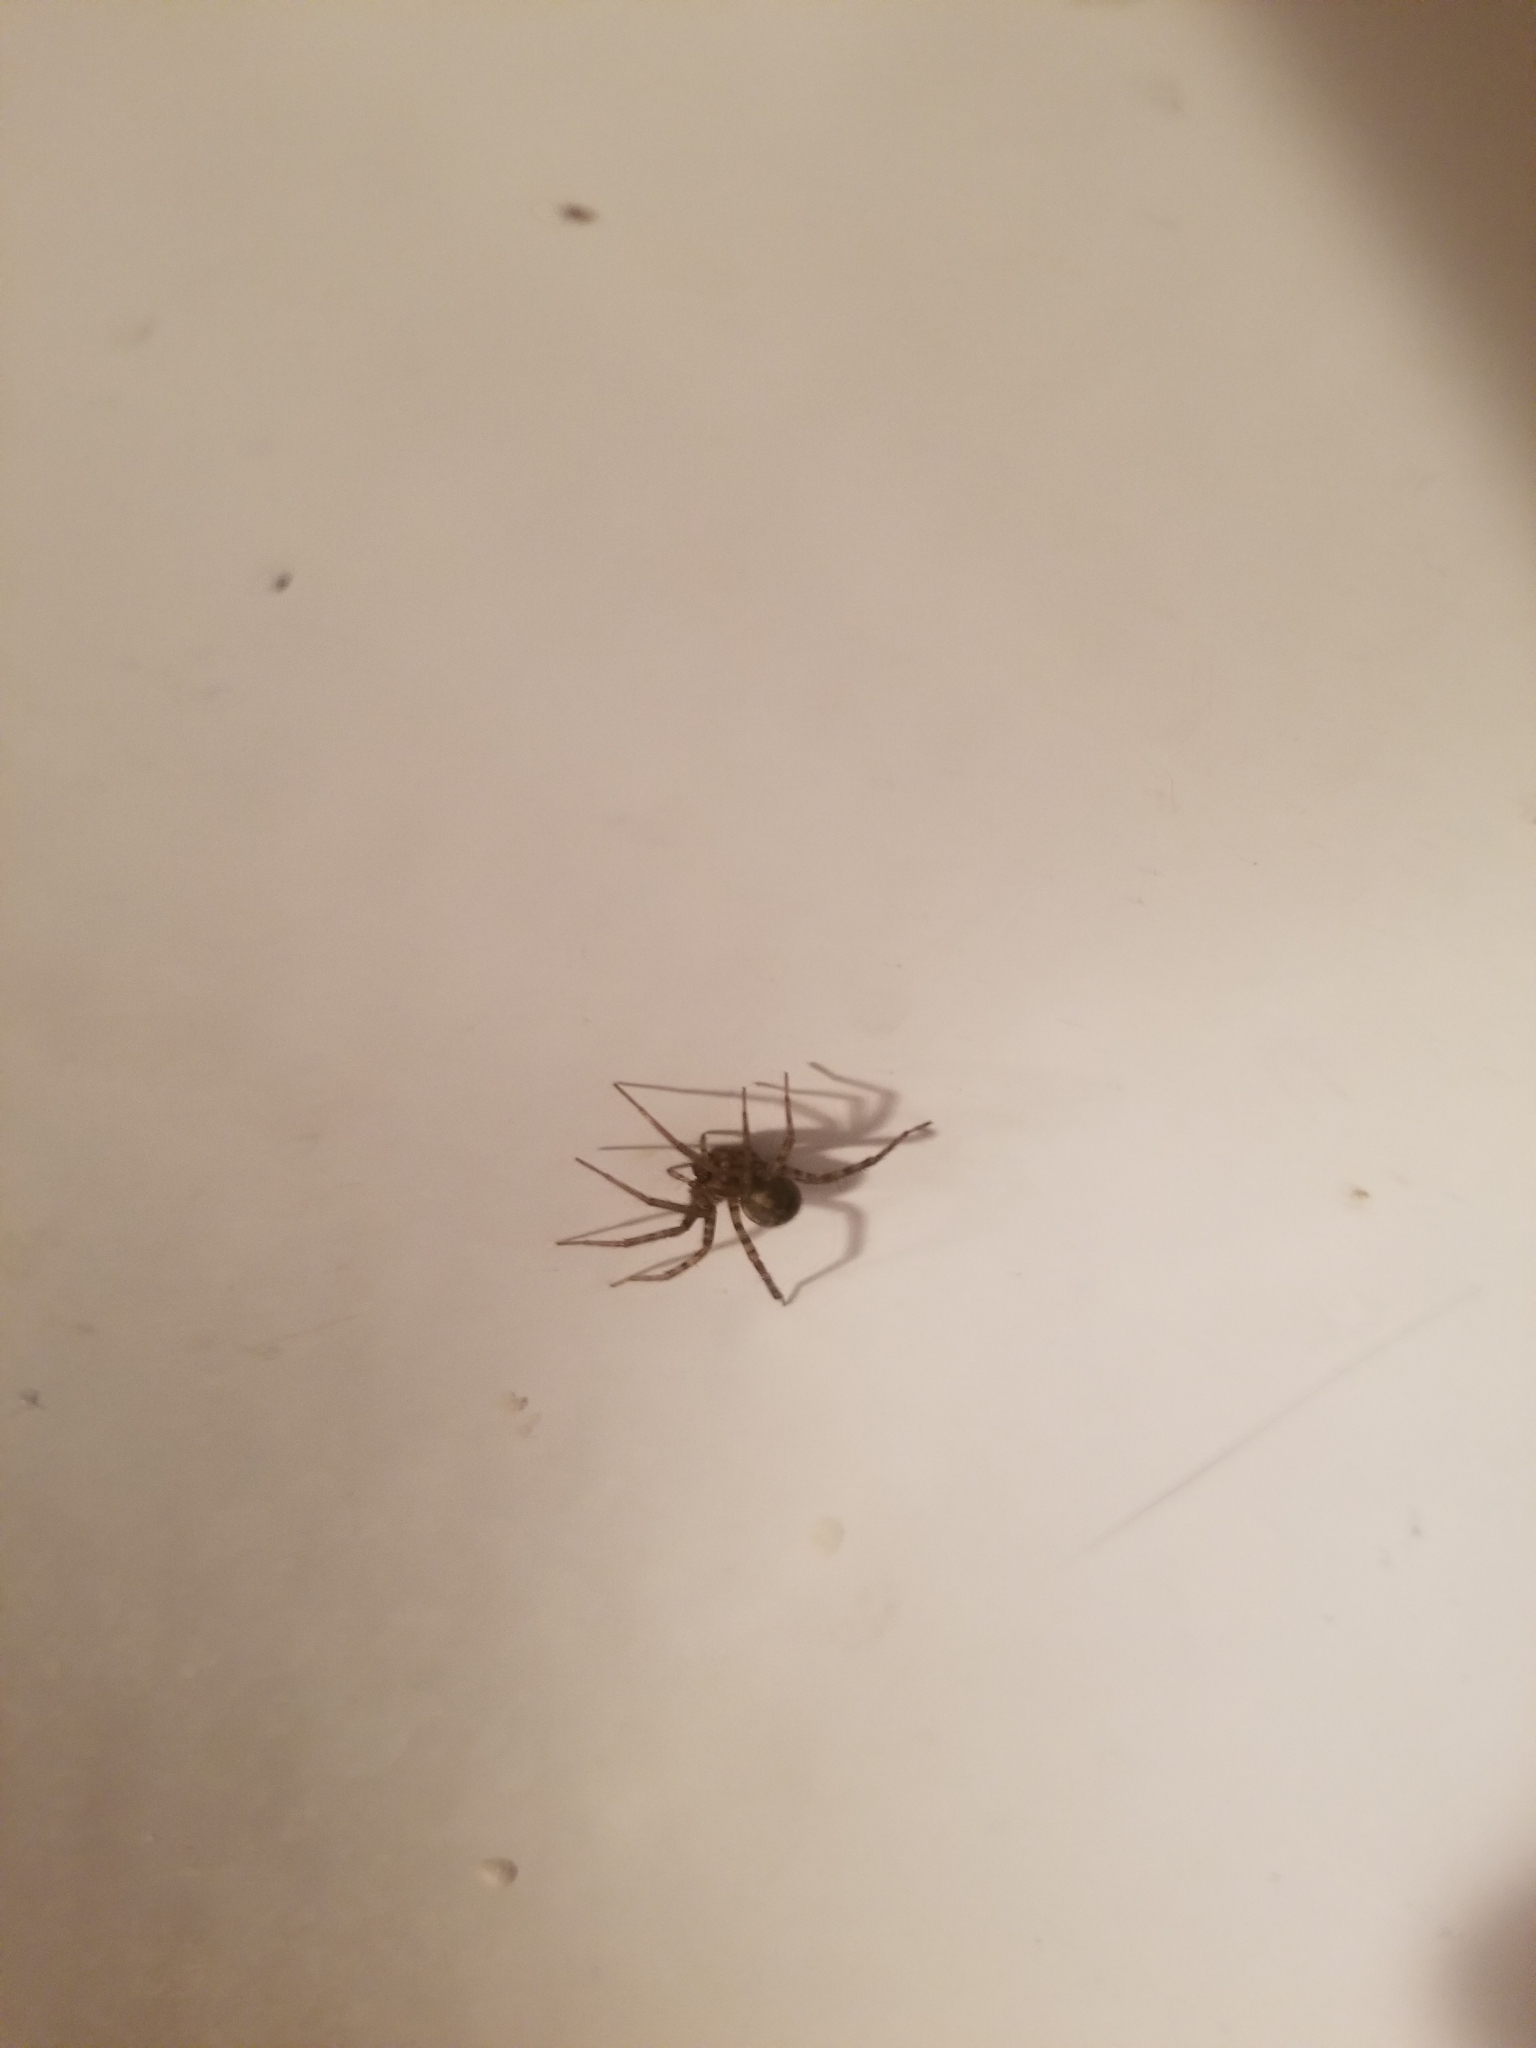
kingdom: Animalia
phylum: Arthropoda
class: Arachnida
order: Araneae
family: Agelenidae
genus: Tegenaria
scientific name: Tegenaria domestica
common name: Barn funnel weaver
